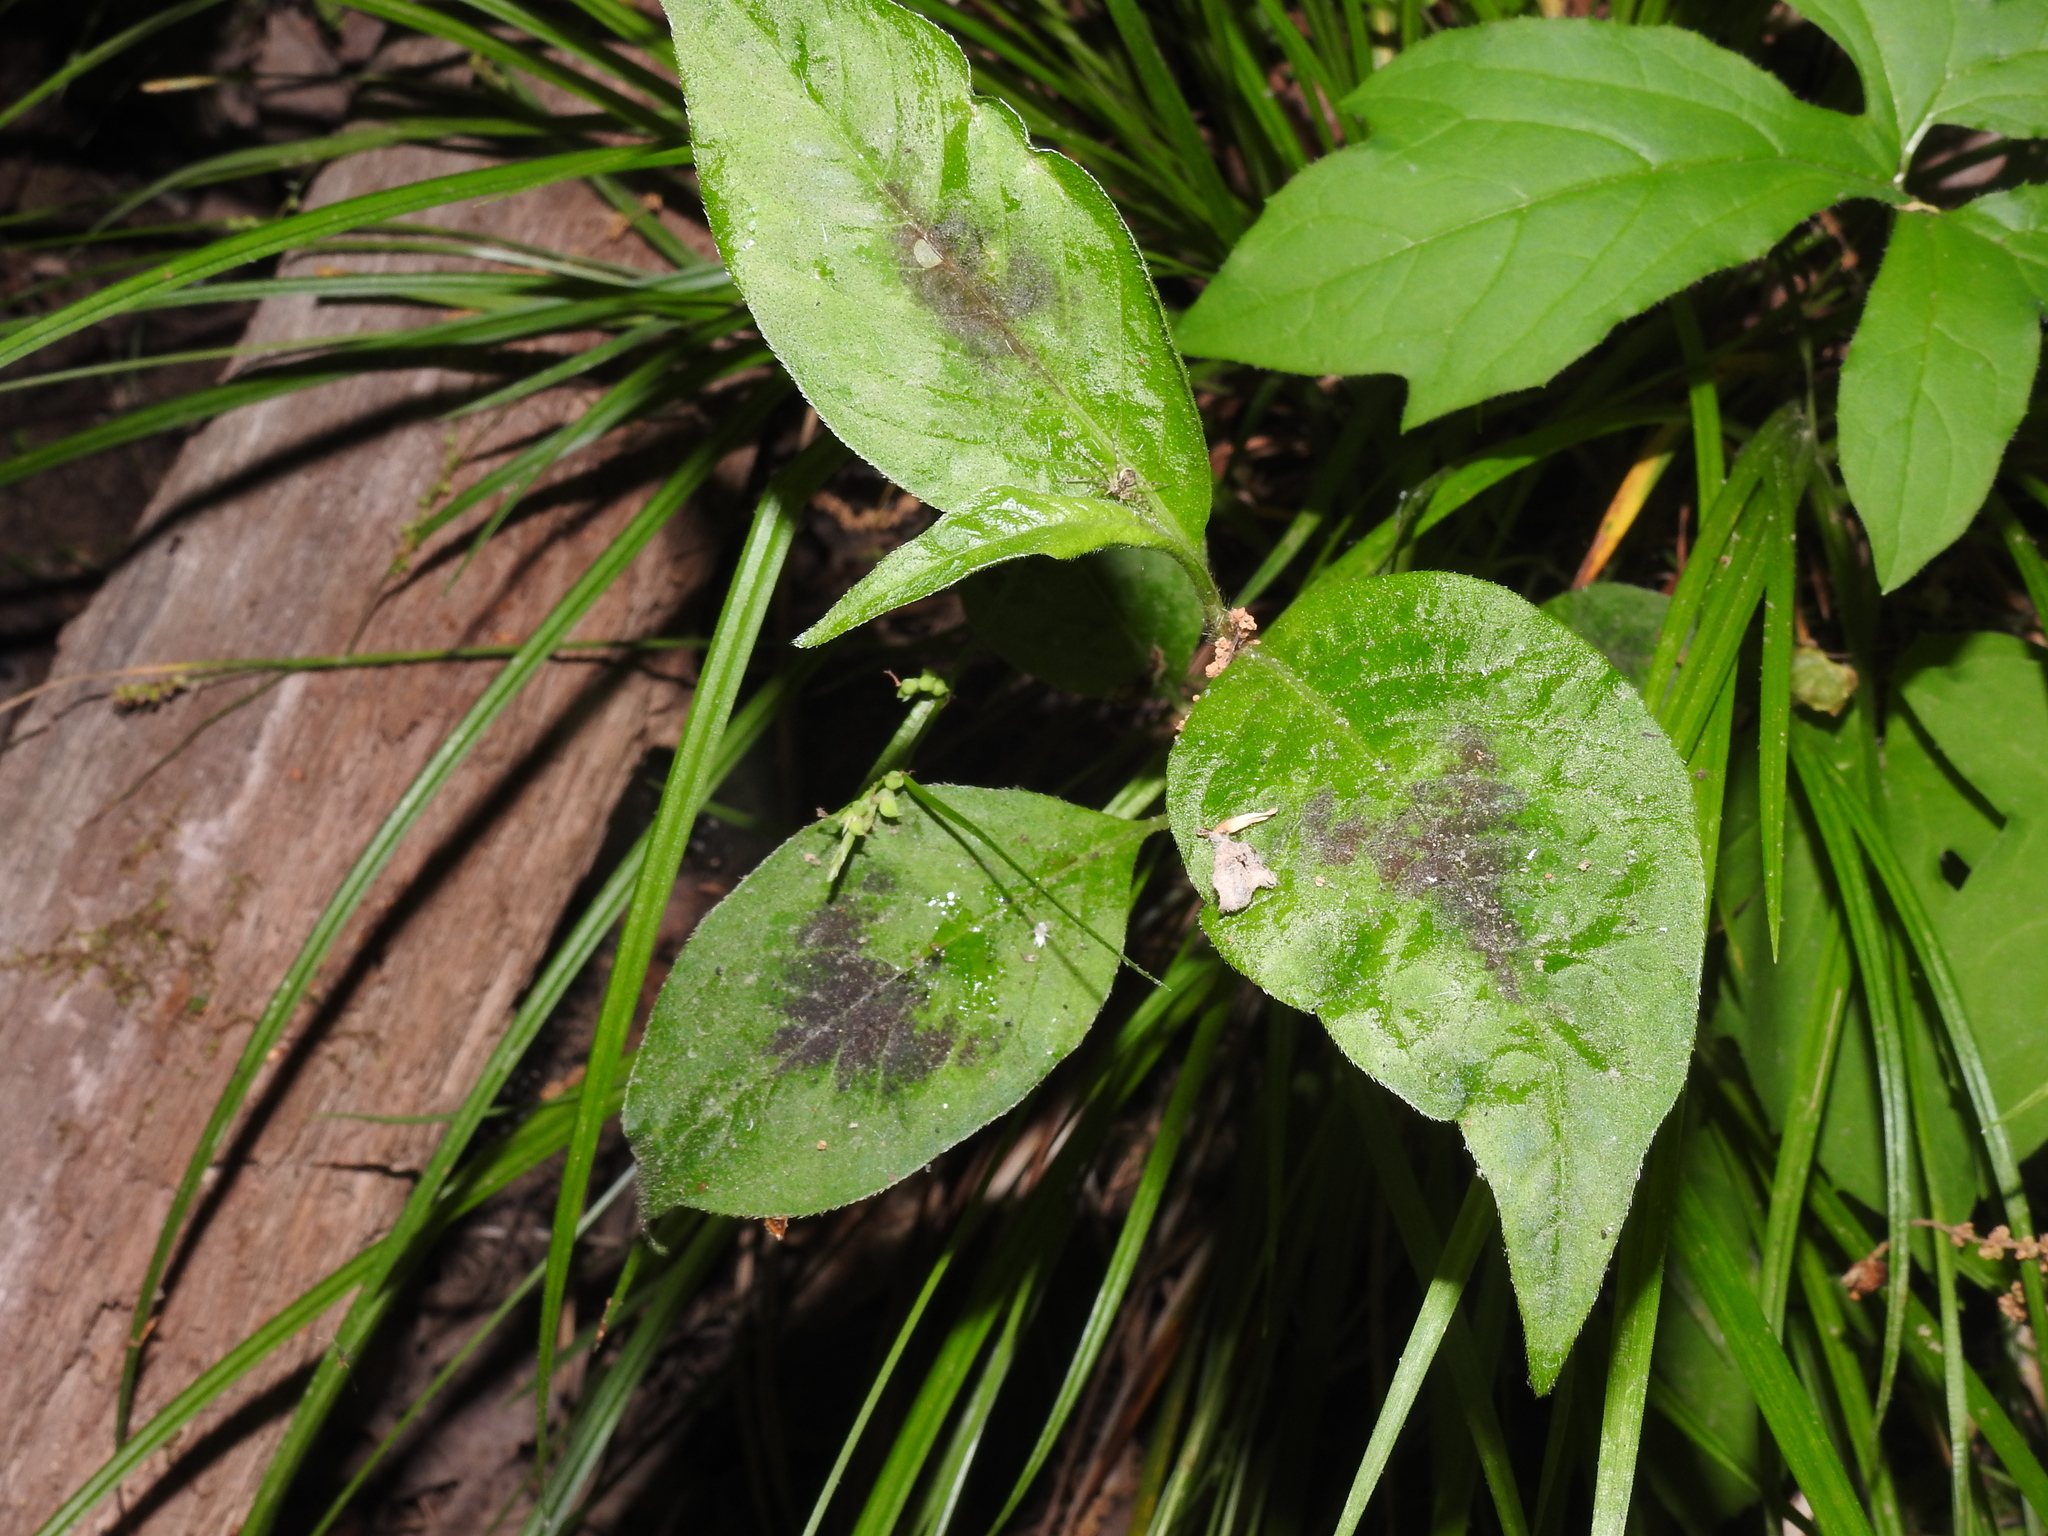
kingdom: Plantae
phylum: Tracheophyta
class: Magnoliopsida
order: Caryophyllales
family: Polygonaceae
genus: Persicaria
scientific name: Persicaria virginiana
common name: Jumpseed
